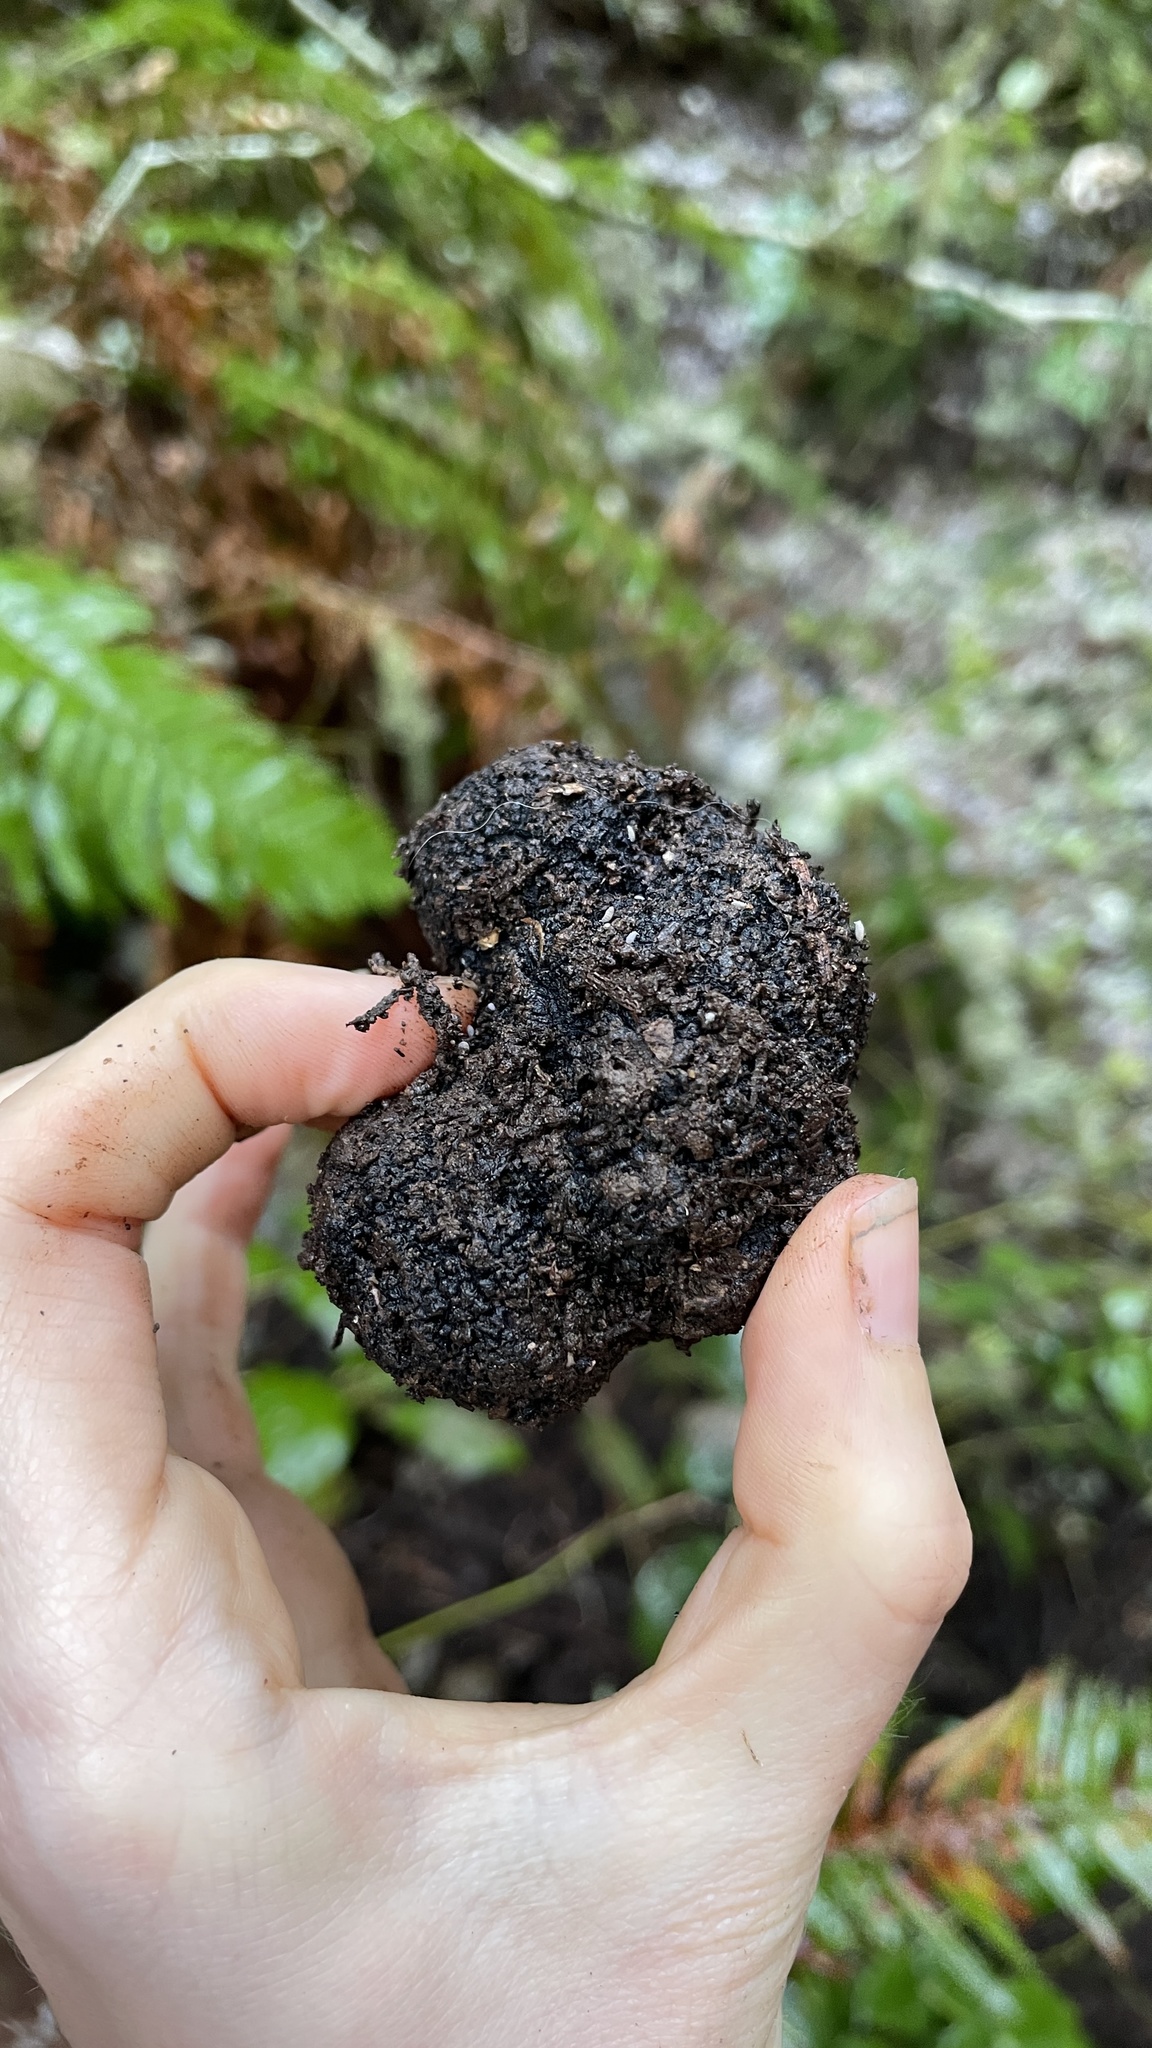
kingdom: Fungi
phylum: Ascomycota
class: Pezizomycetes
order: Pezizales
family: Morchellaceae
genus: Leucangium
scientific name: Leucangium carthusianum
